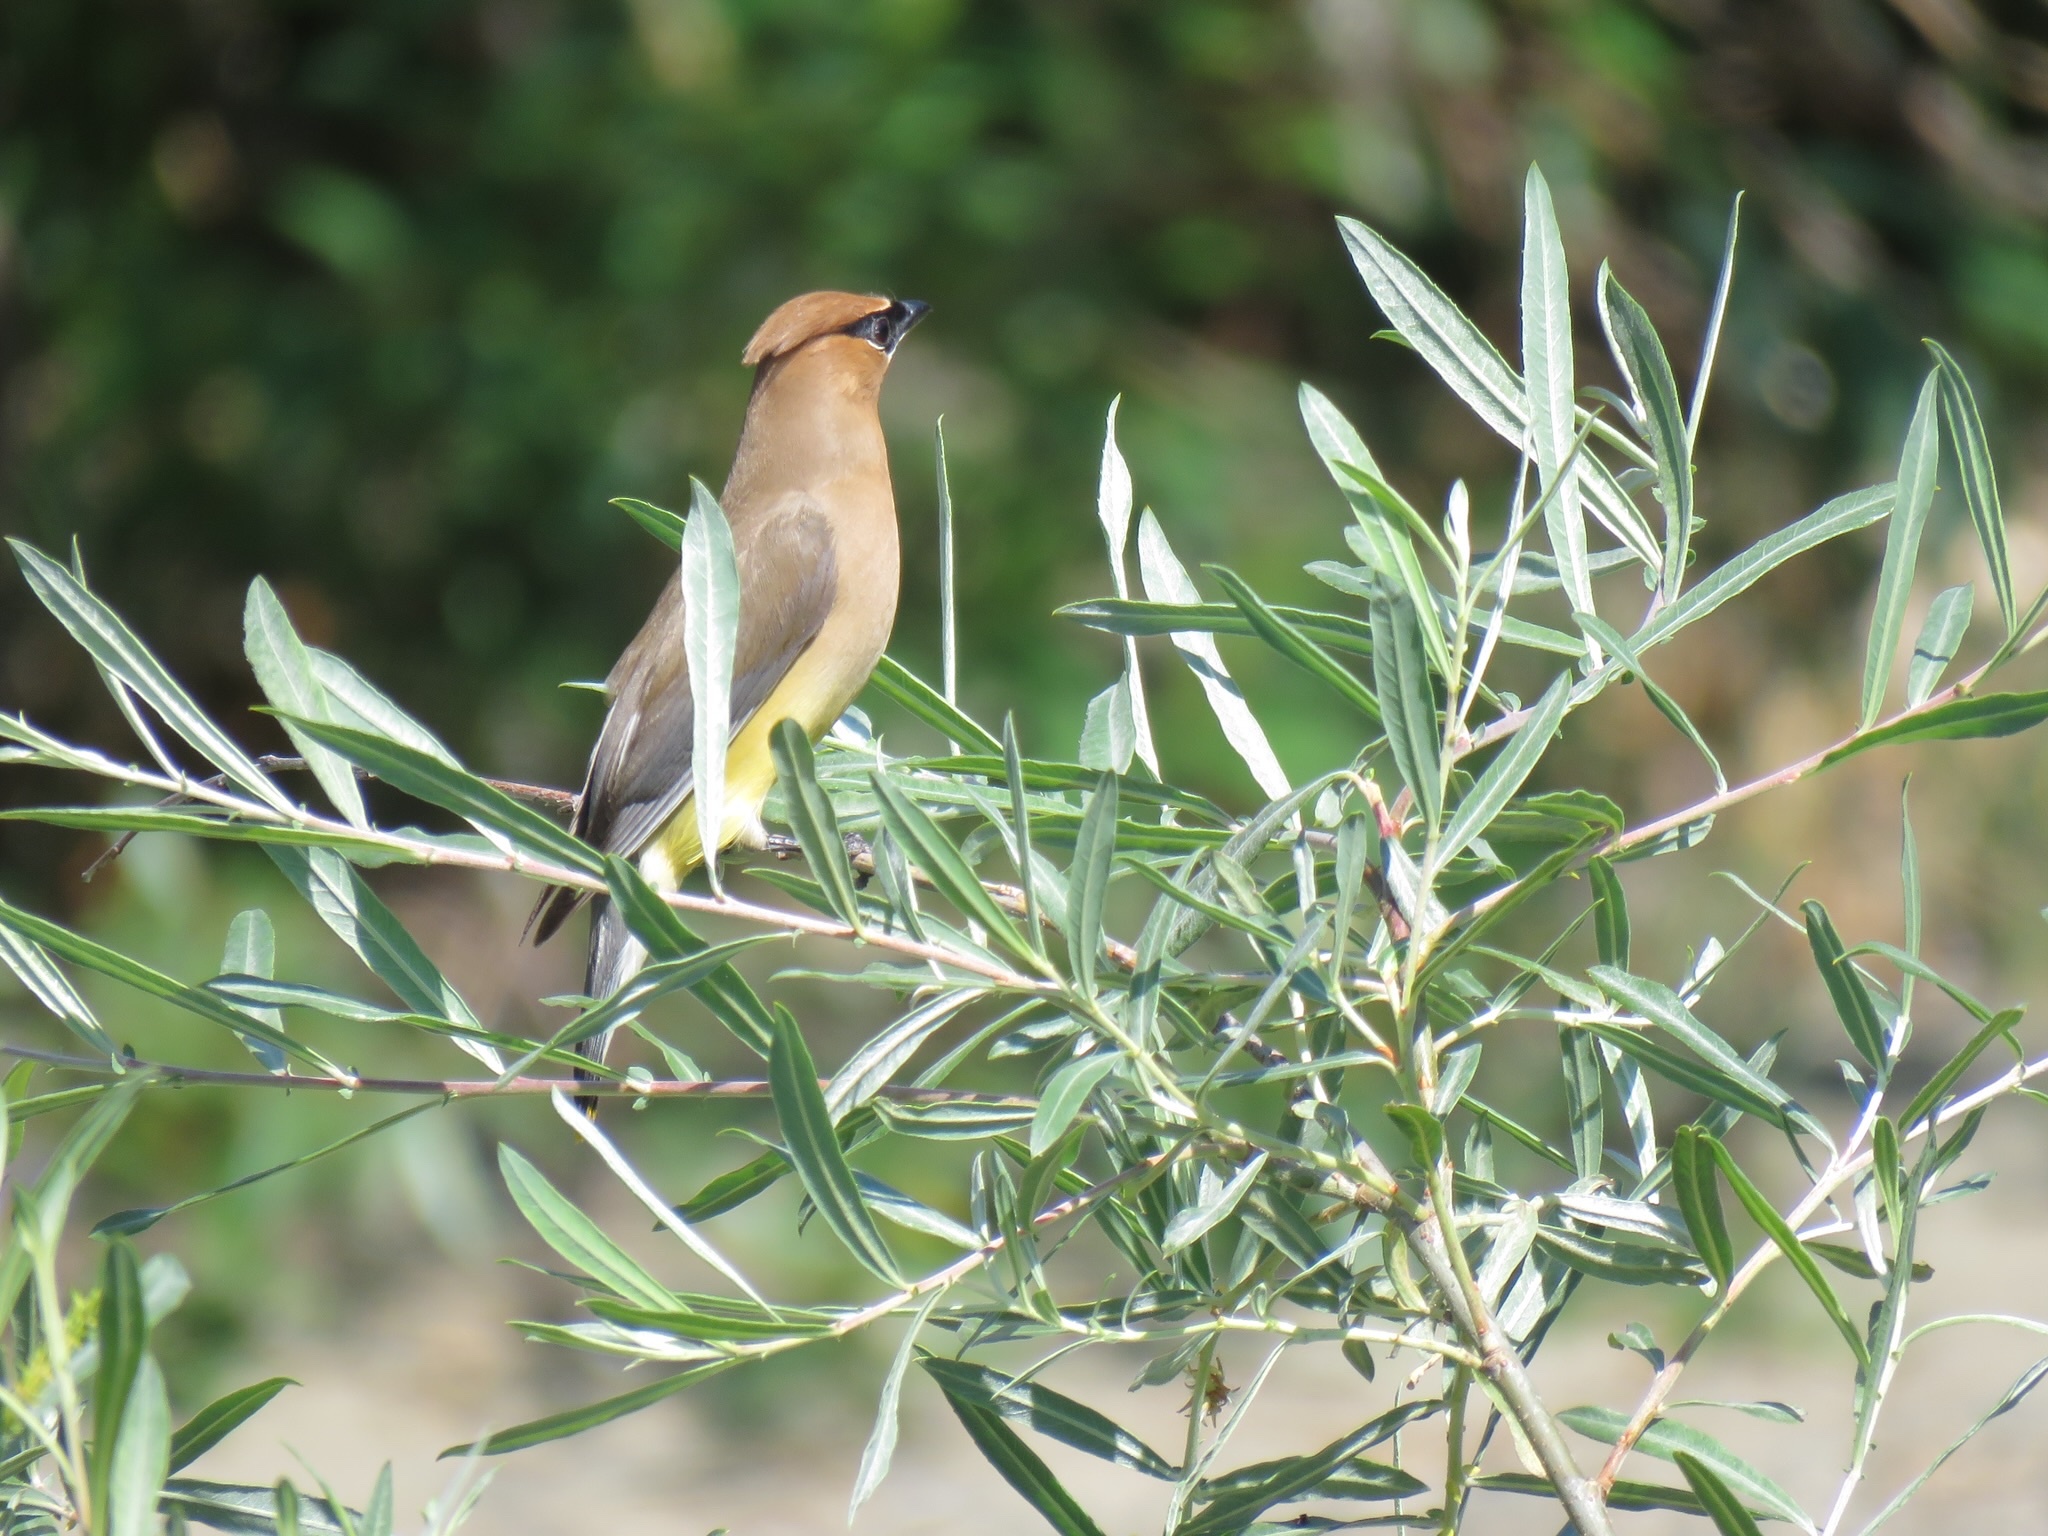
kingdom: Animalia
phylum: Chordata
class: Aves
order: Passeriformes
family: Bombycillidae
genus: Bombycilla
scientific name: Bombycilla cedrorum
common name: Cedar waxwing
